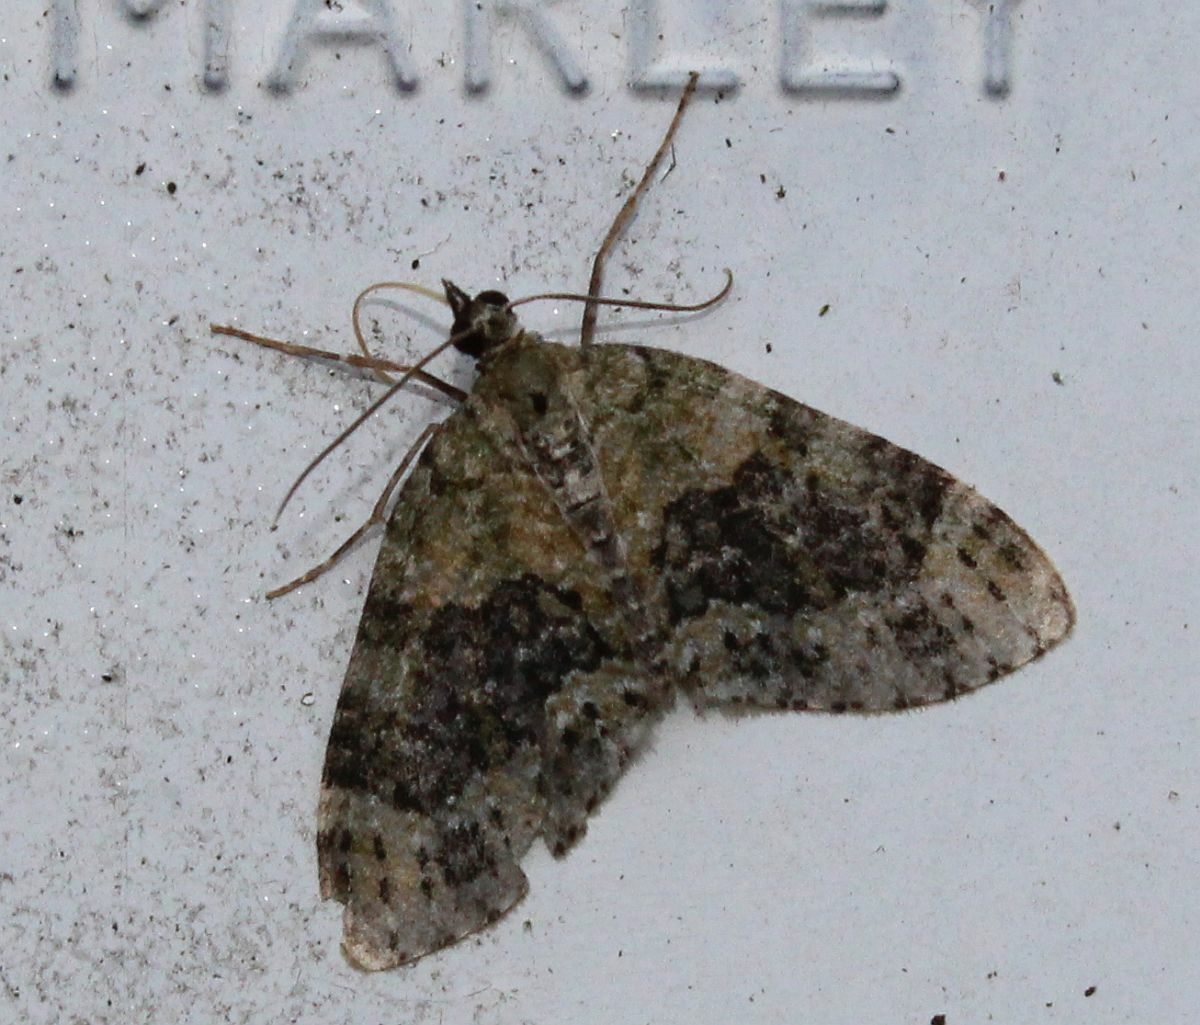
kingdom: Animalia
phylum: Arthropoda
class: Insecta
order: Lepidoptera
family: Geometridae
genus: Acasis
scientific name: Acasis viretata
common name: Yellow-barred brindle
